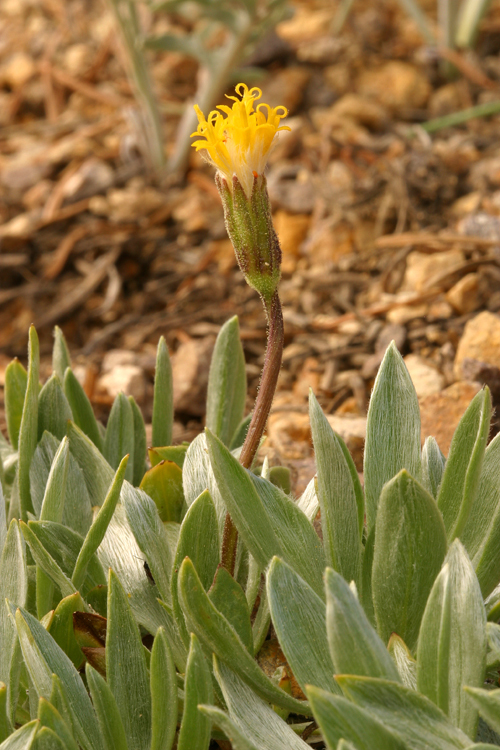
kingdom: Plantae
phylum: Tracheophyta
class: Magnoliopsida
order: Asterales
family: Asteraceae
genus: Raillardella
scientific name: Raillardella argentea
